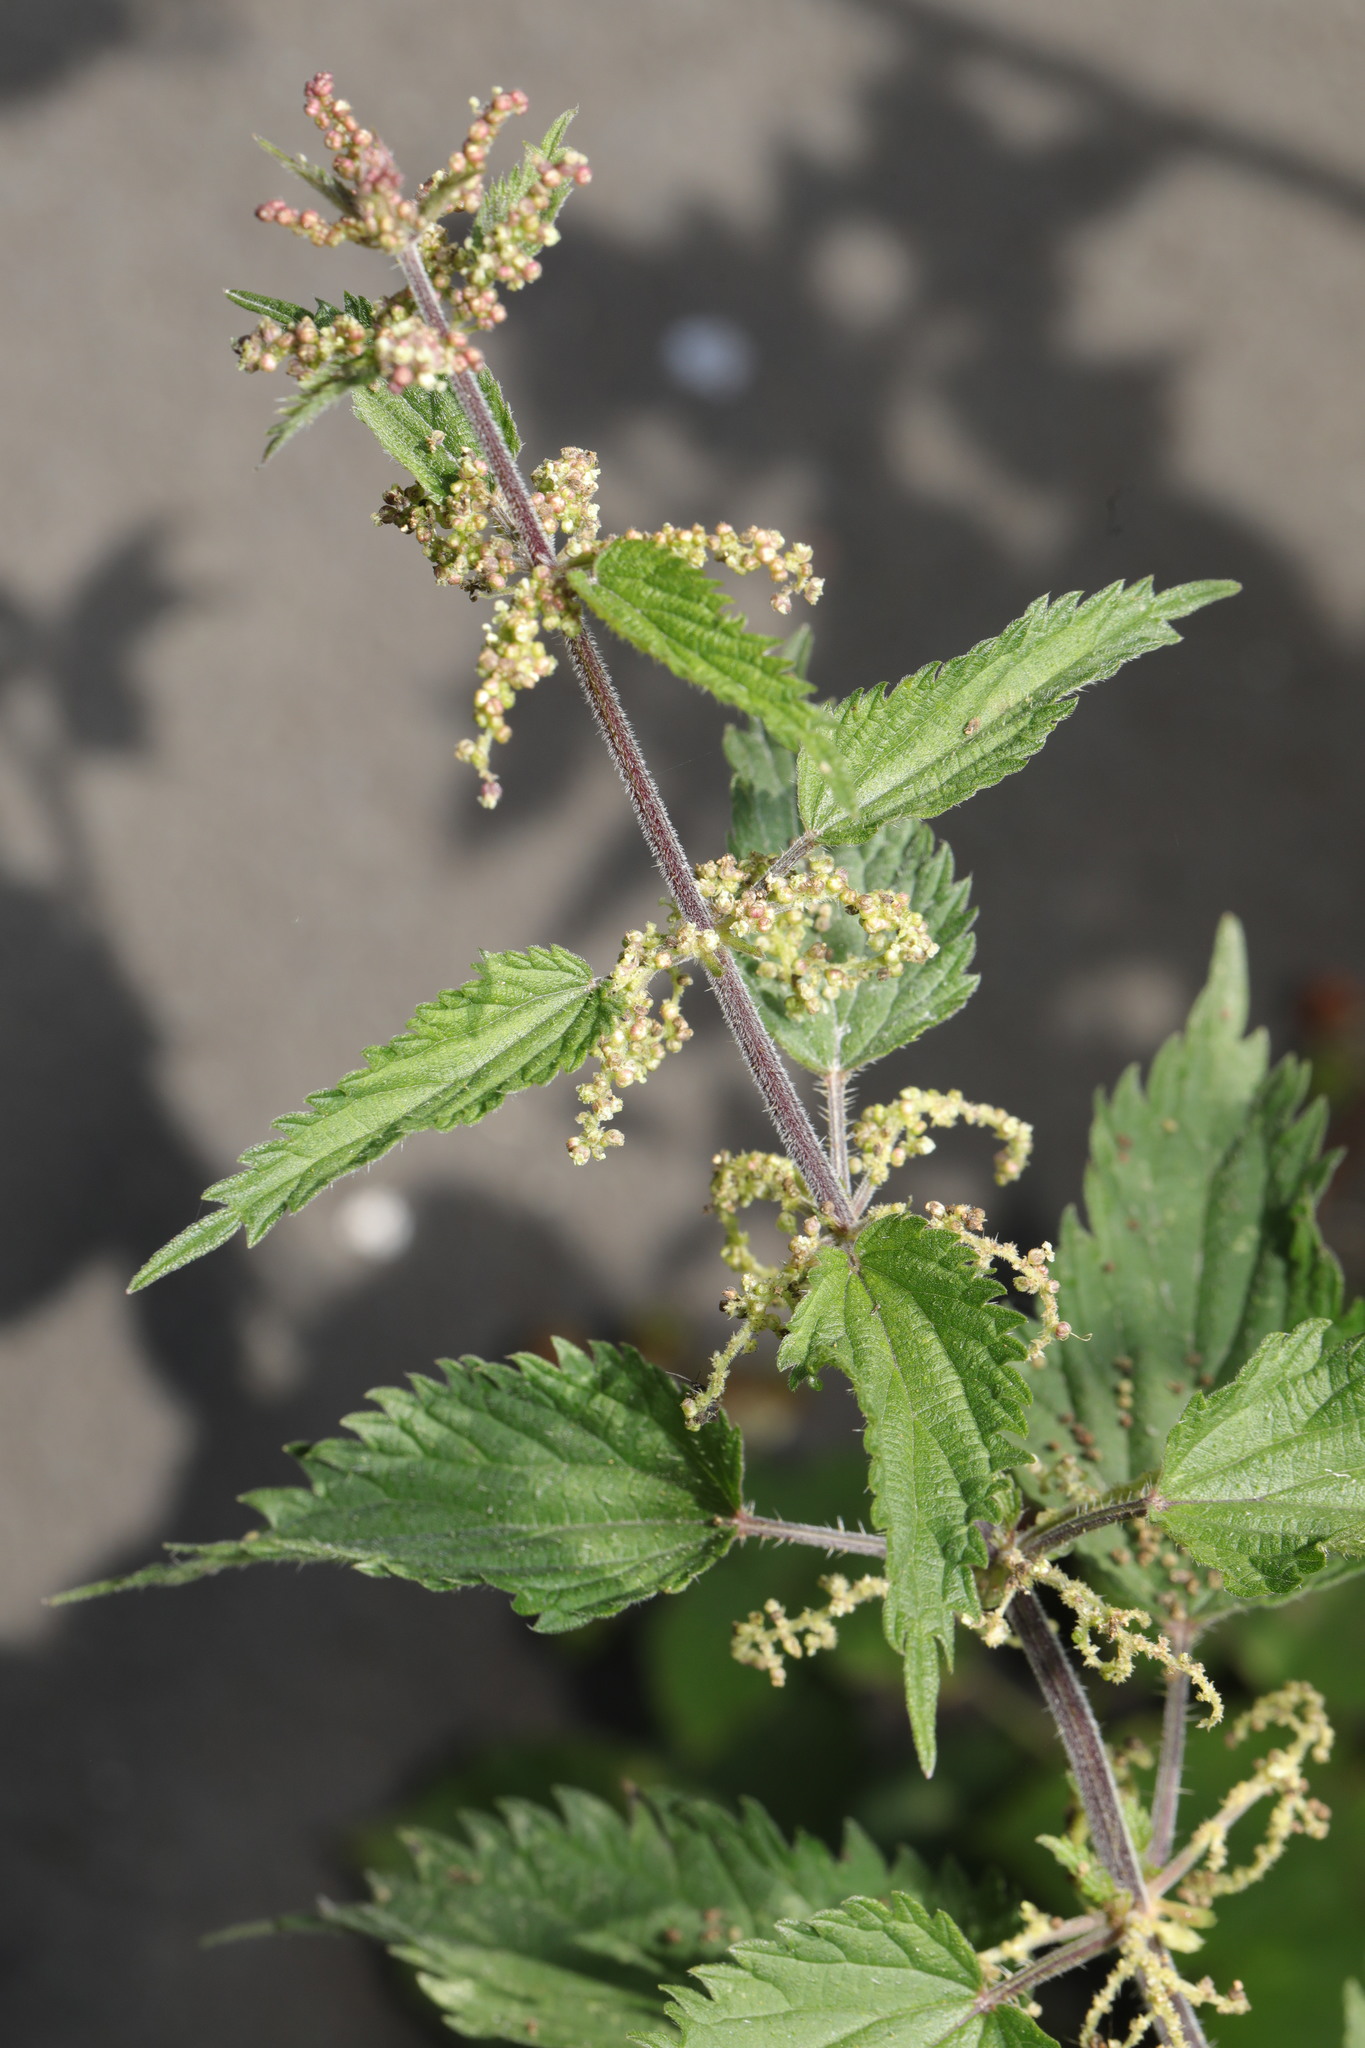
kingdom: Plantae
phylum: Tracheophyta
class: Magnoliopsida
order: Rosales
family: Urticaceae
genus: Urtica
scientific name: Urtica dioica
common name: Common nettle
